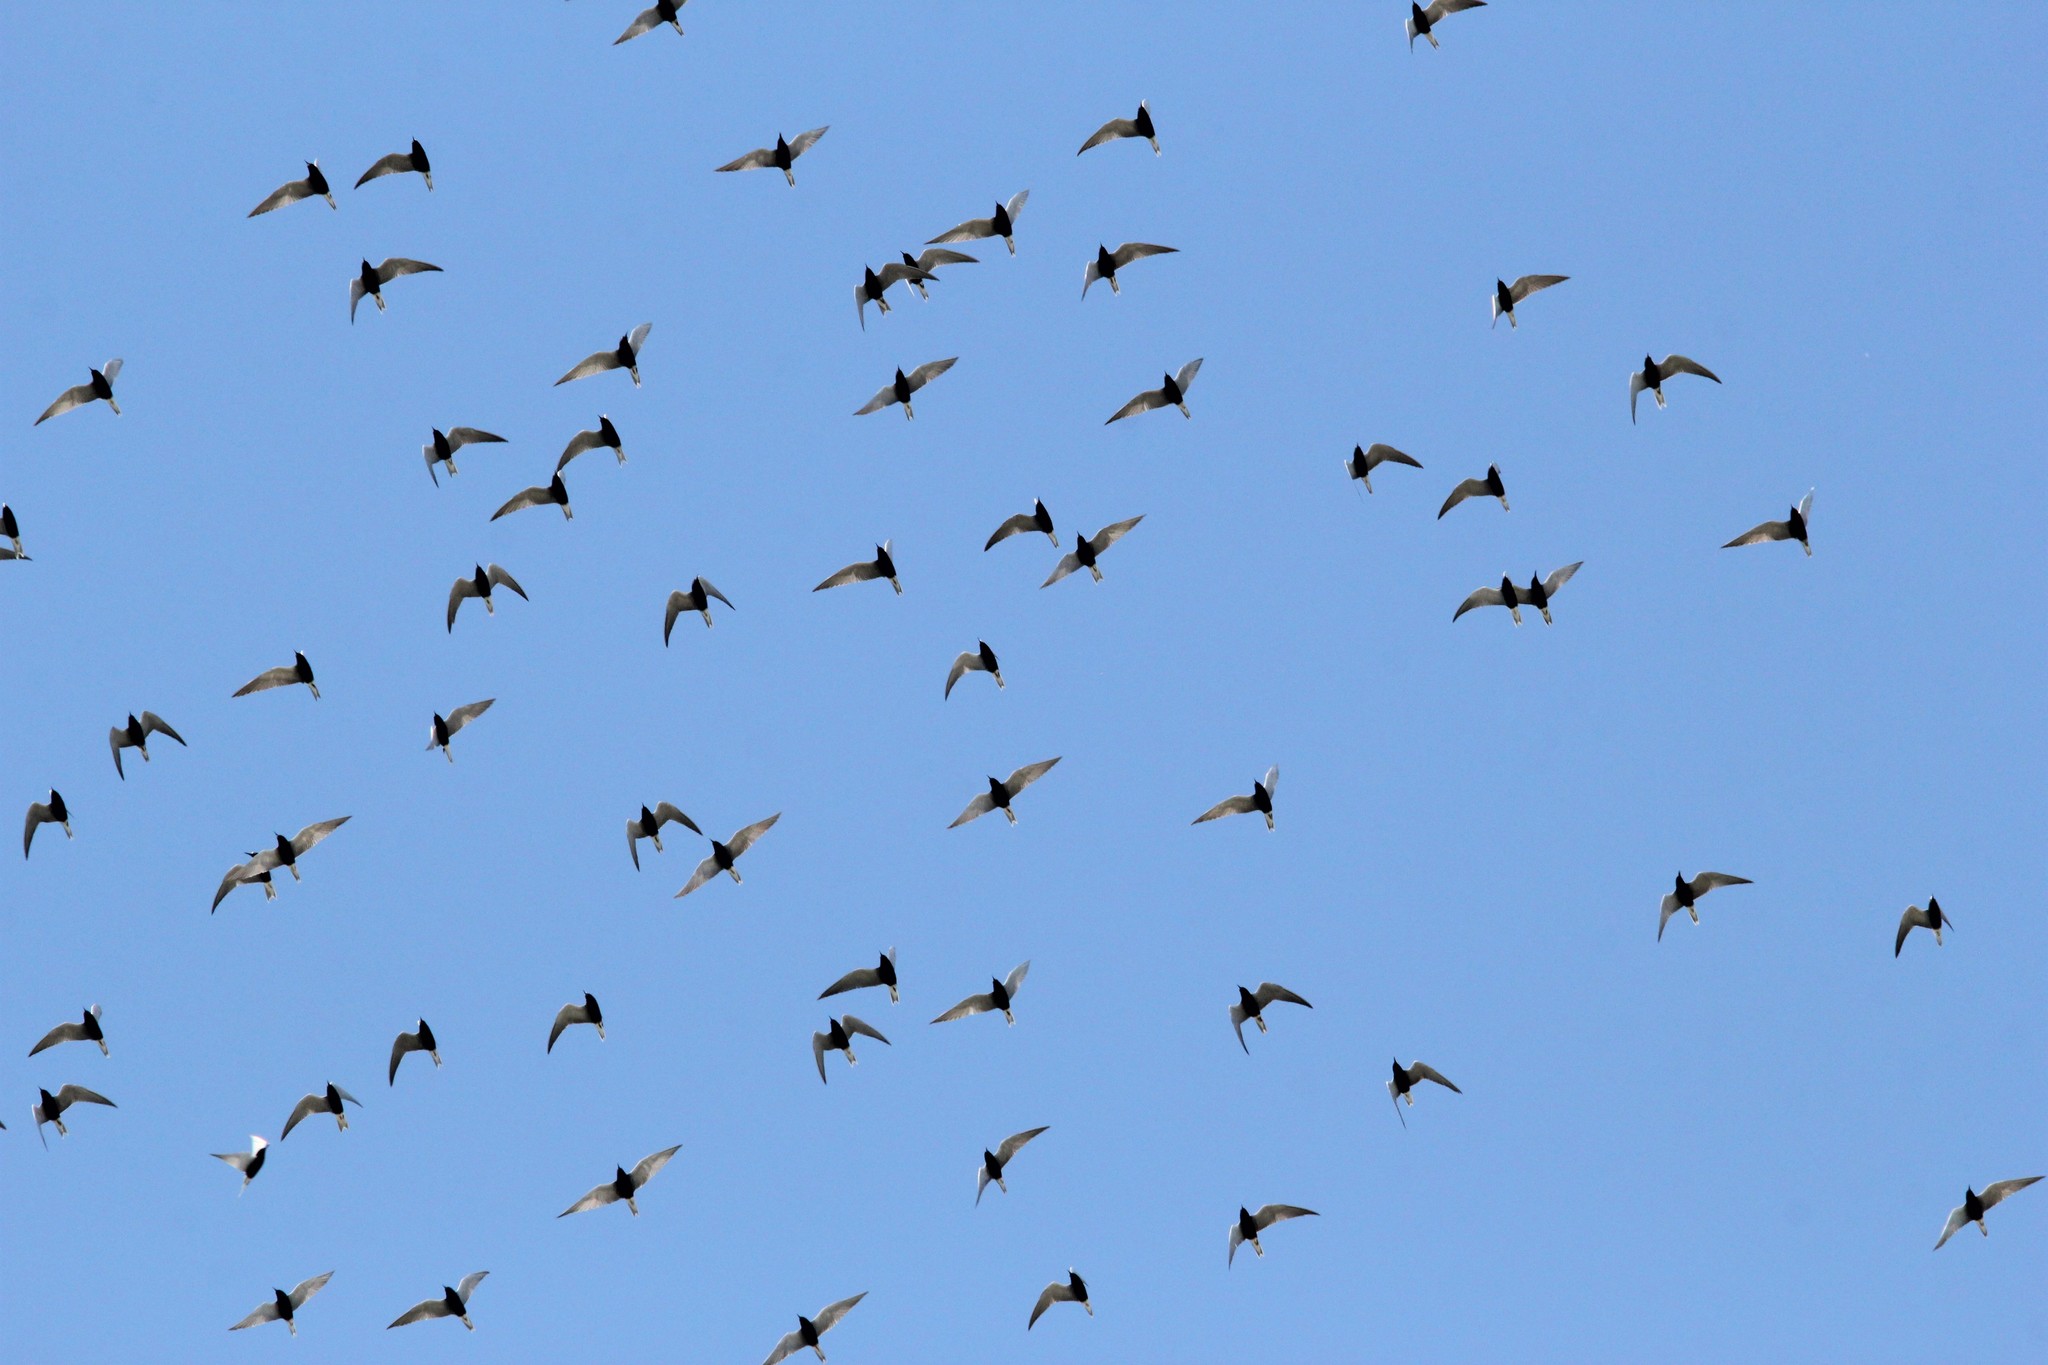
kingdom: Animalia
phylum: Chordata
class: Aves
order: Charadriiformes
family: Laridae
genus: Chlidonias
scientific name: Chlidonias niger
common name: Black tern
